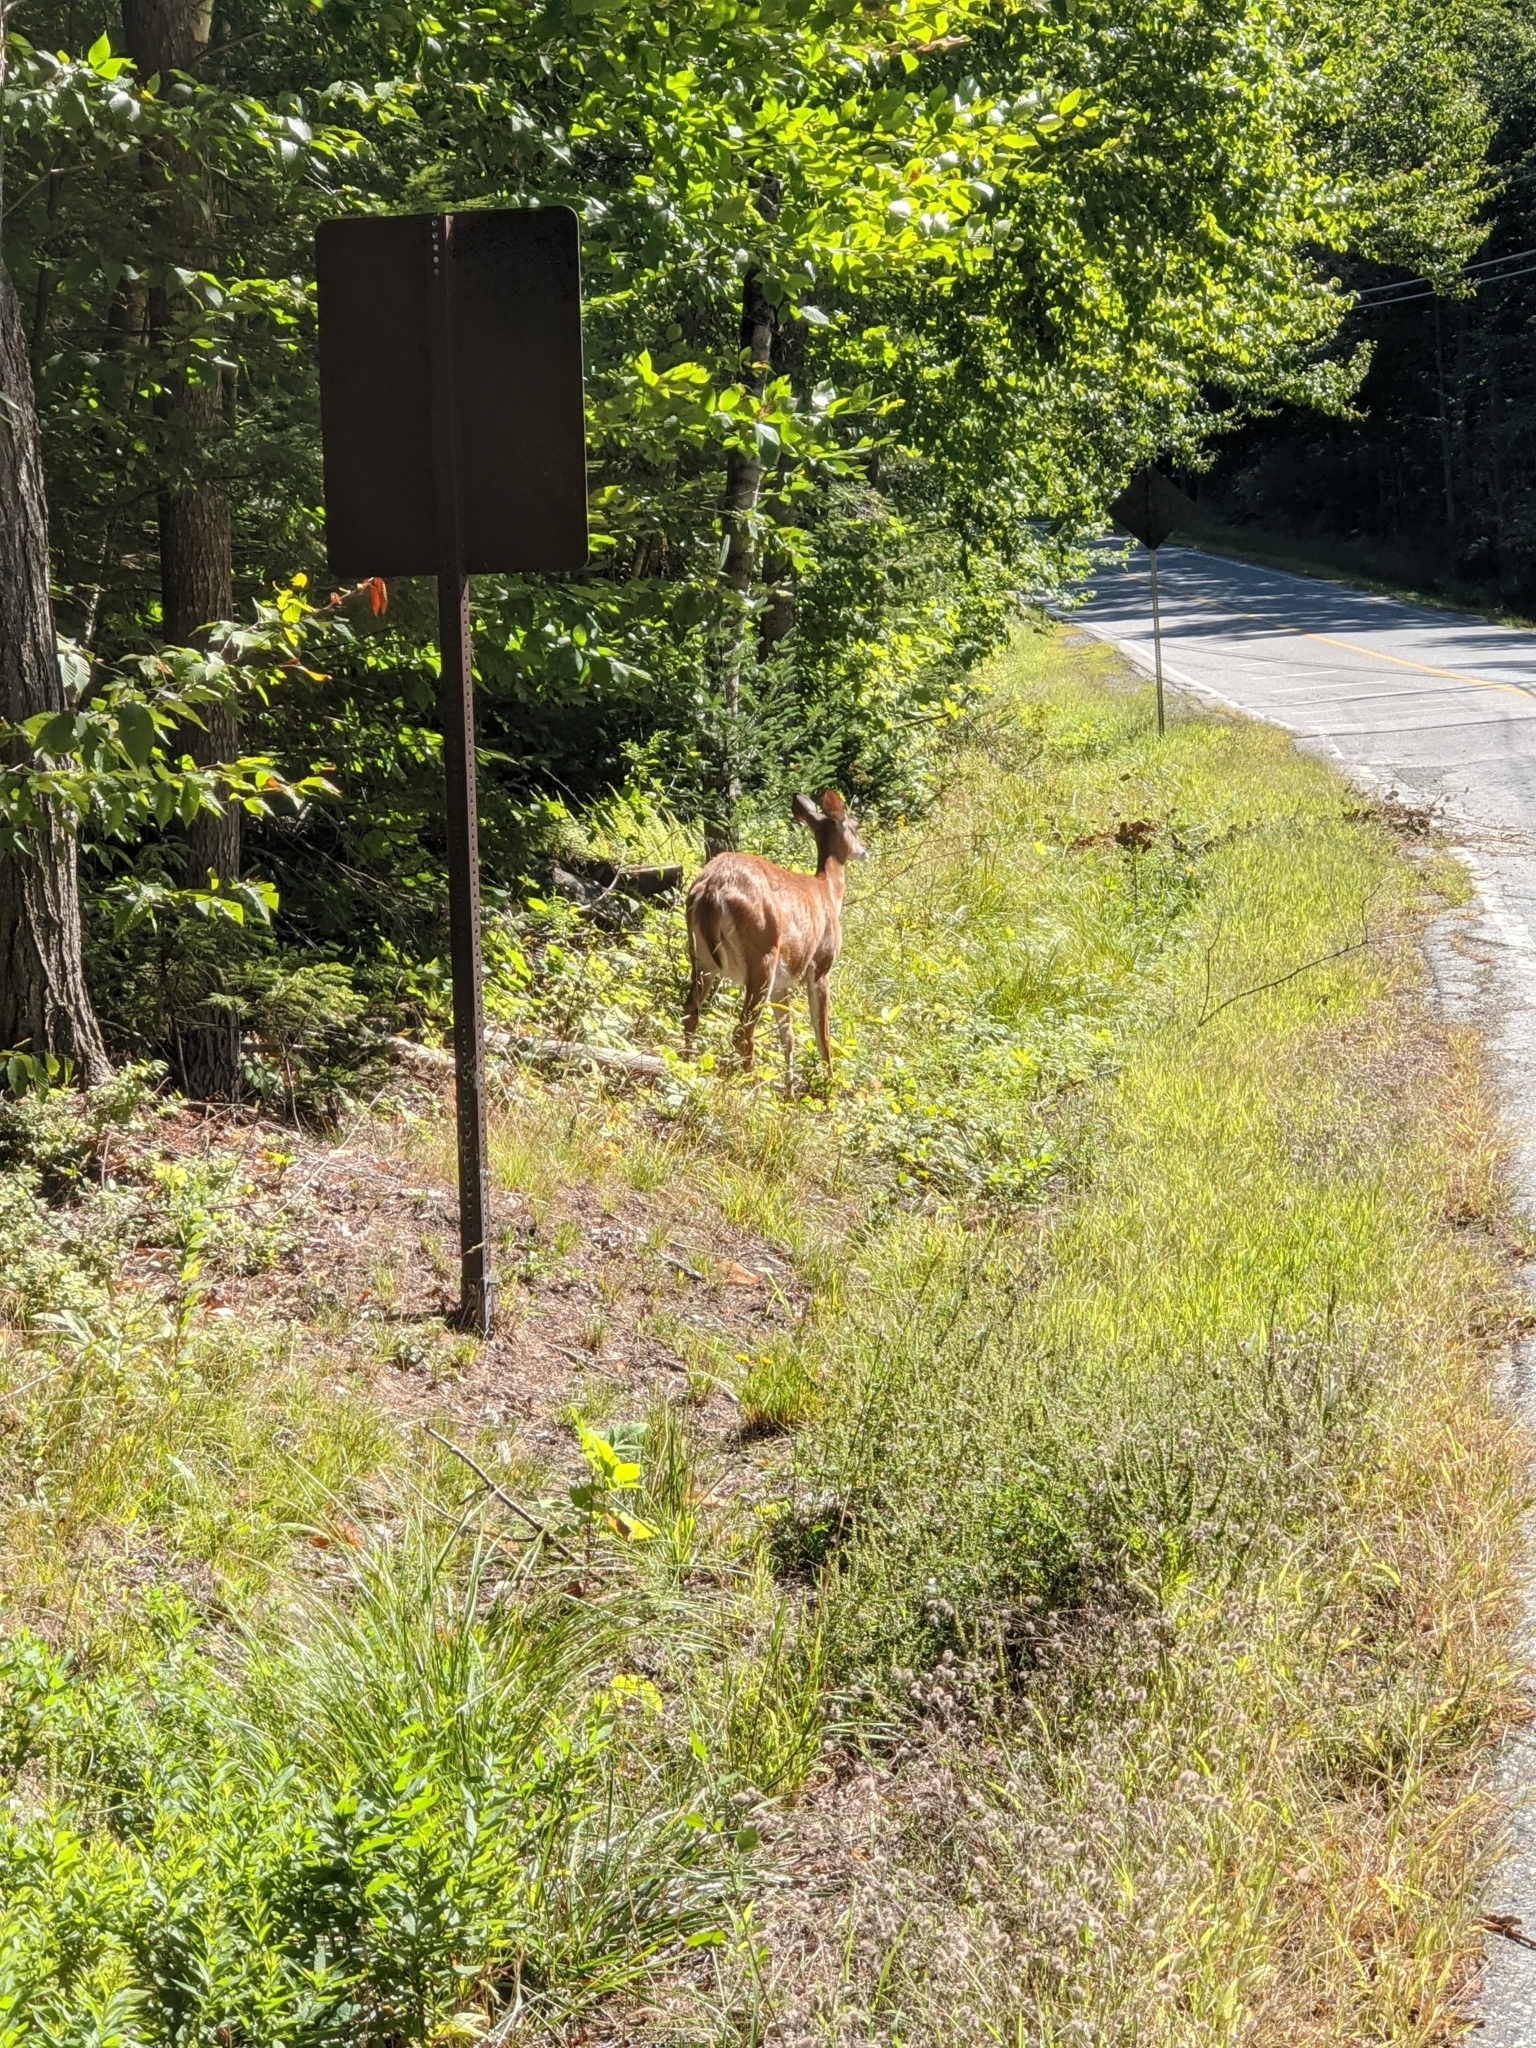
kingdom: Animalia
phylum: Chordata
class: Mammalia
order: Artiodactyla
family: Cervidae
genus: Odocoileus
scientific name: Odocoileus virginianus
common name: White-tailed deer
